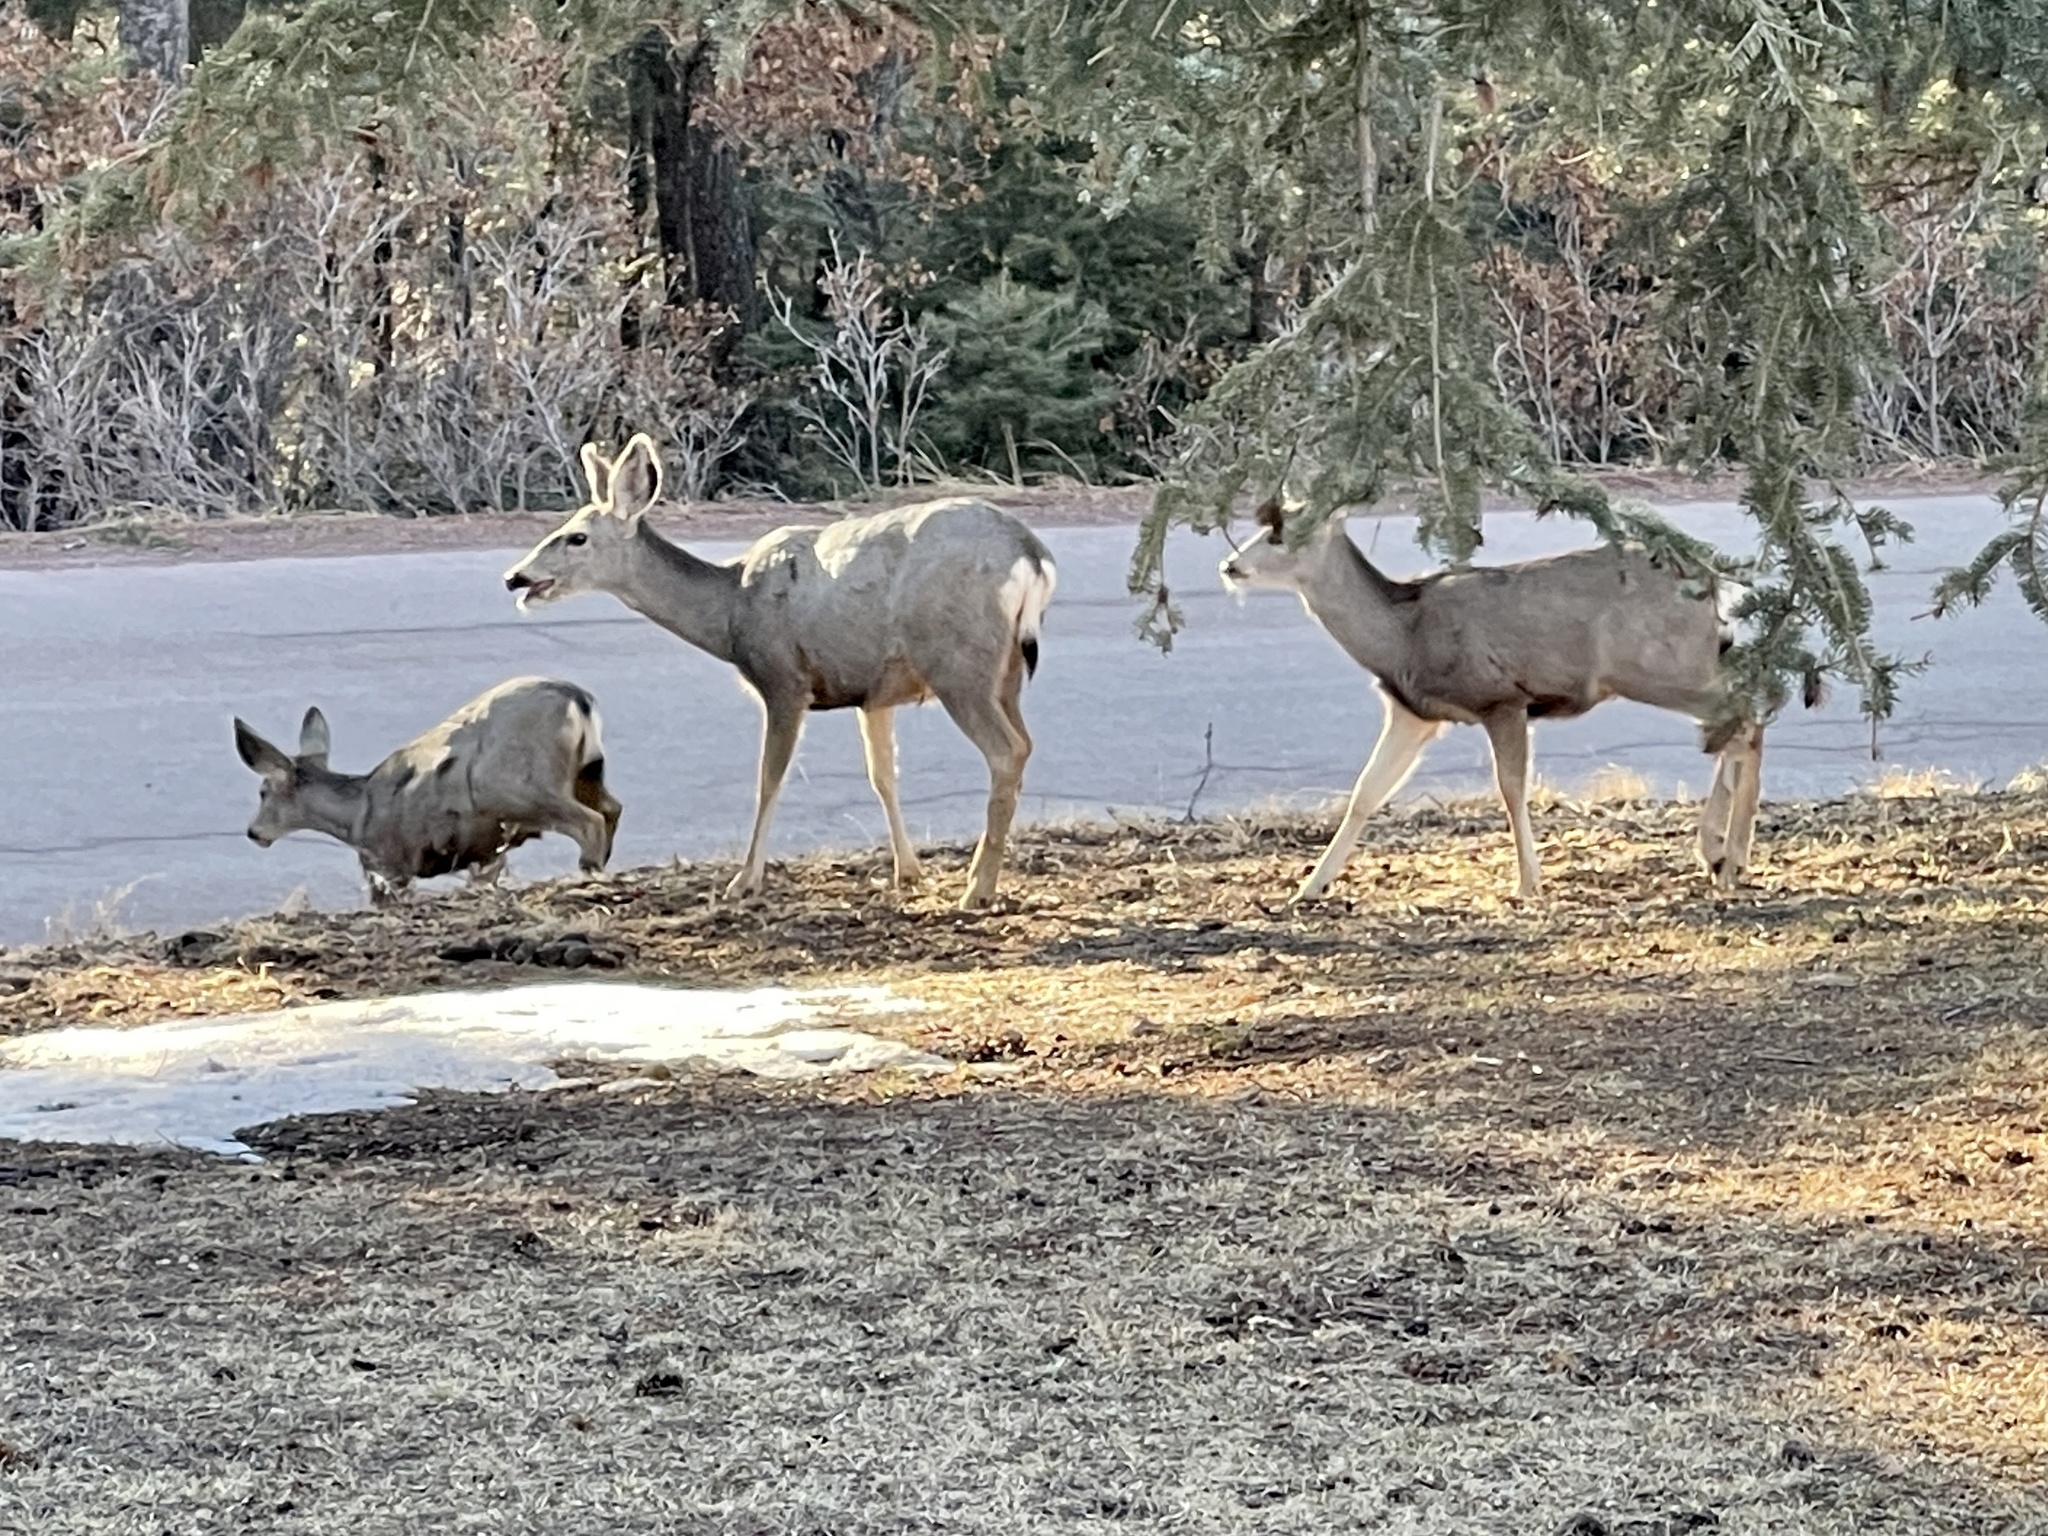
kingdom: Animalia
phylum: Chordata
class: Mammalia
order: Artiodactyla
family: Cervidae
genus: Odocoileus
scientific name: Odocoileus hemionus
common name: Mule deer
